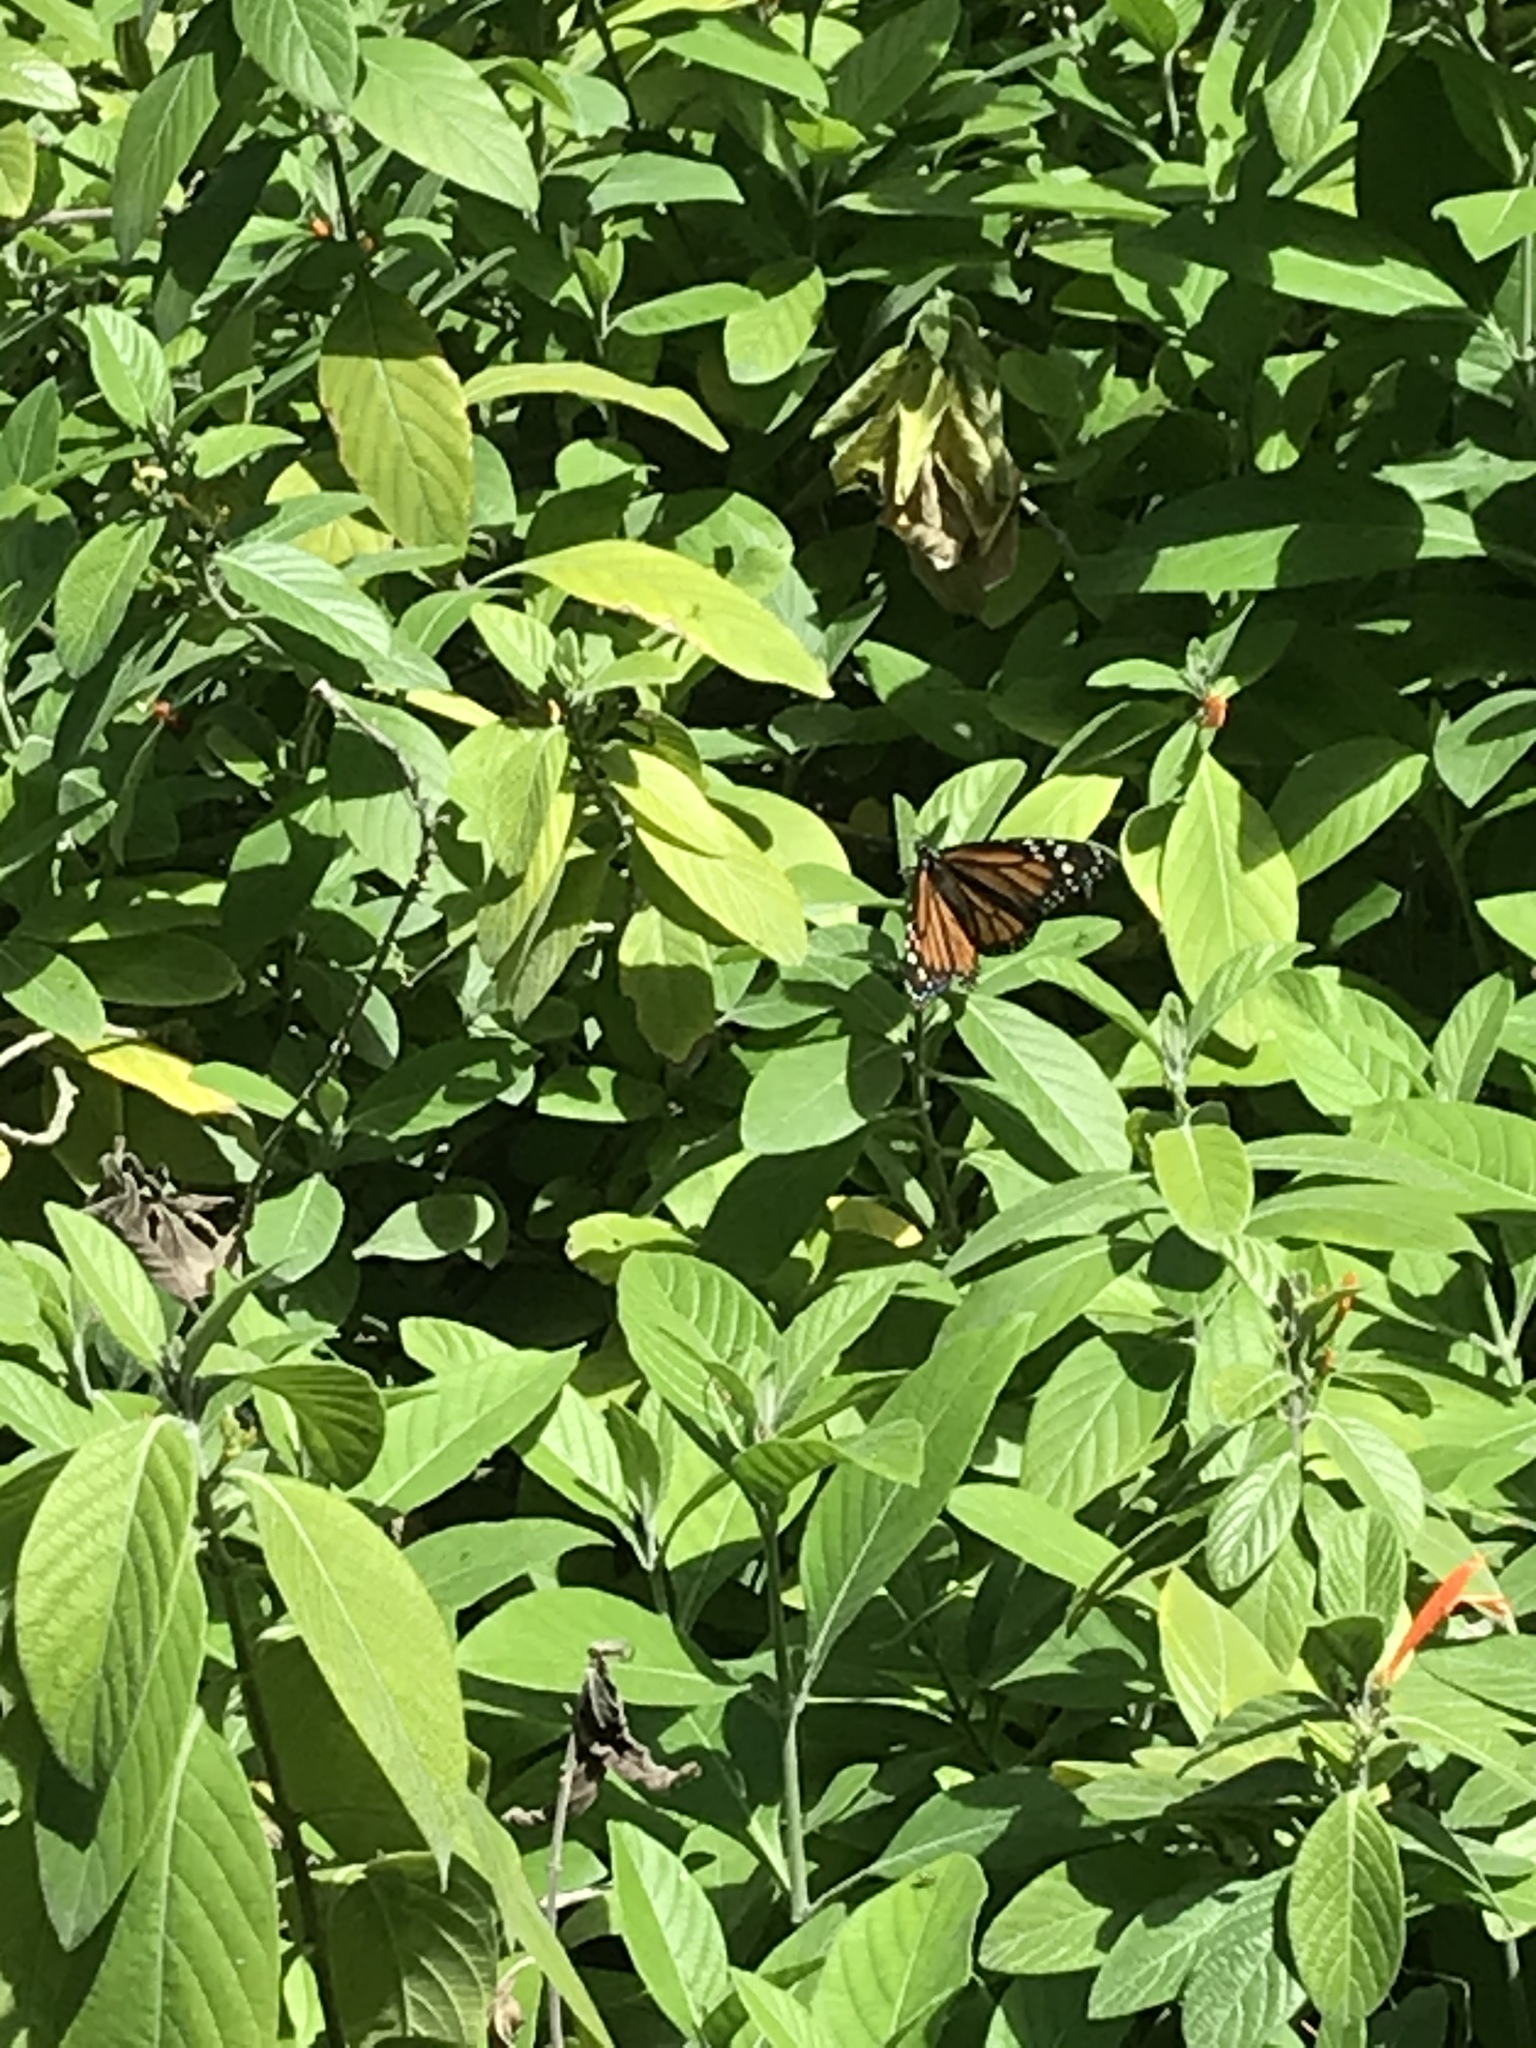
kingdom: Animalia
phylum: Arthropoda
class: Insecta
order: Lepidoptera
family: Nymphalidae
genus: Danaus
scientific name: Danaus plexippus
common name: Monarch
